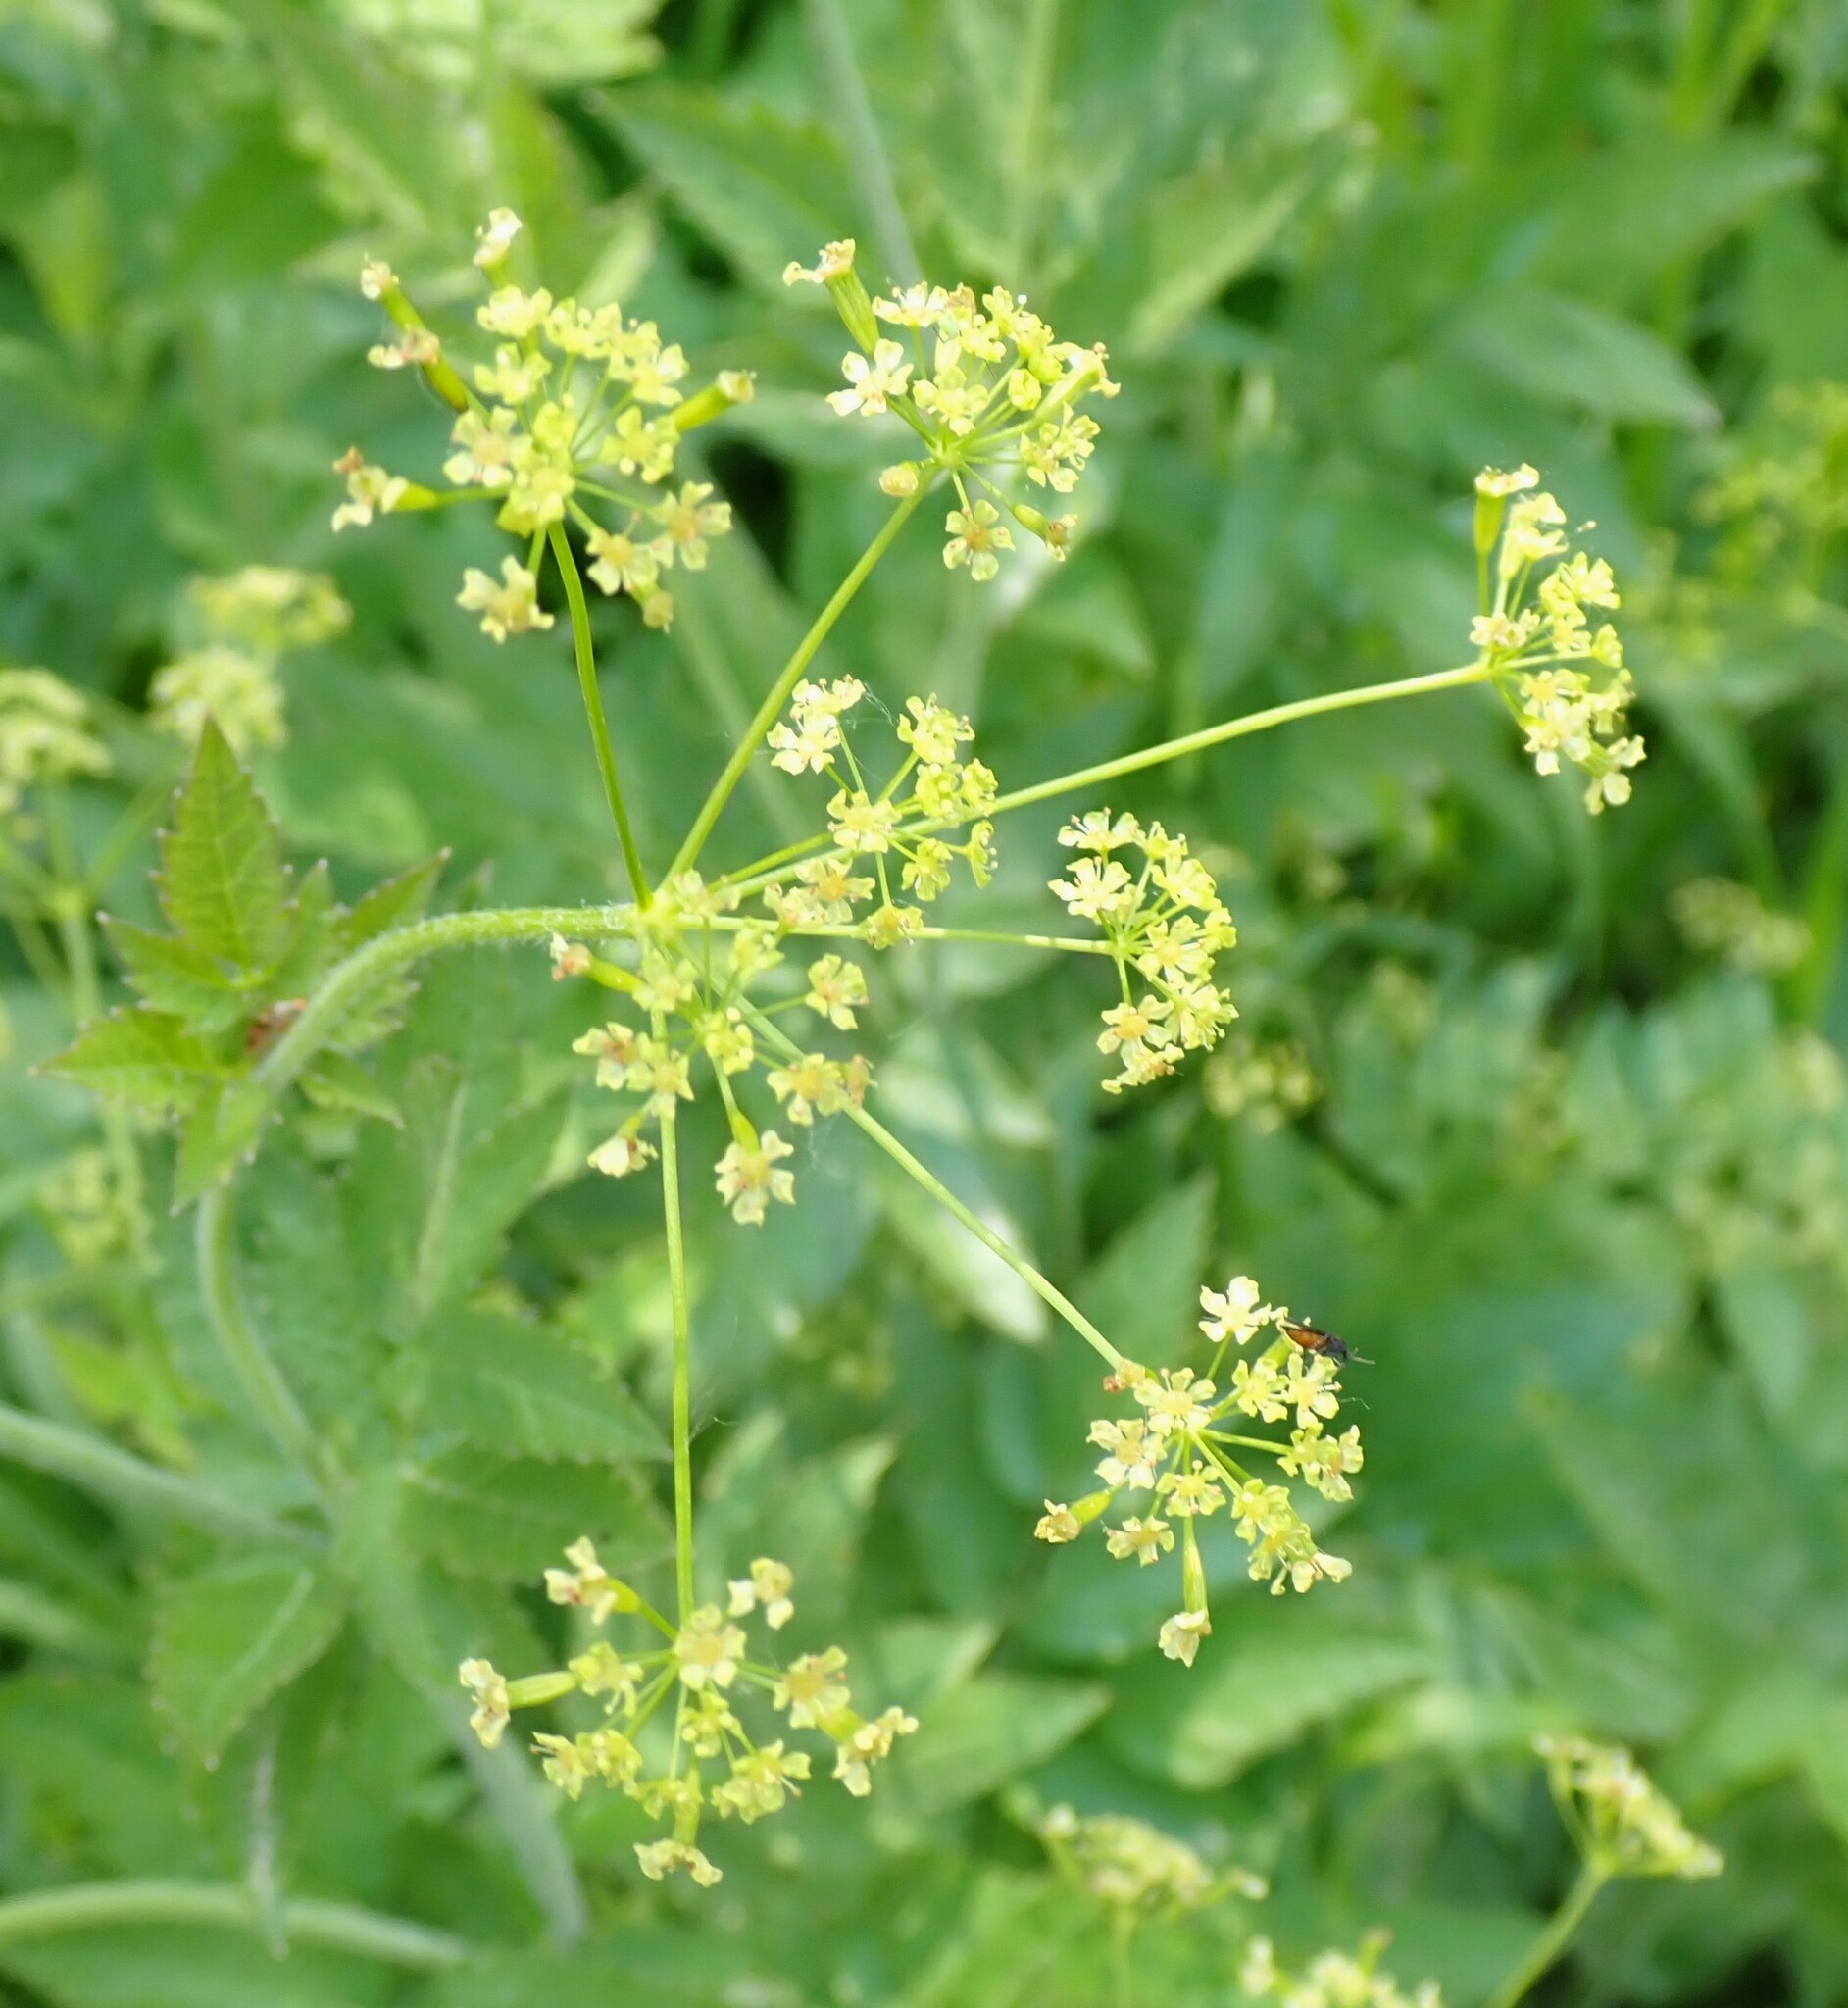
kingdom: Plantae
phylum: Tracheophyta
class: Magnoliopsida
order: Apiales
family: Apiaceae
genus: Osmorhiza
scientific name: Osmorhiza occidentalis
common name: Western sweet cicely
